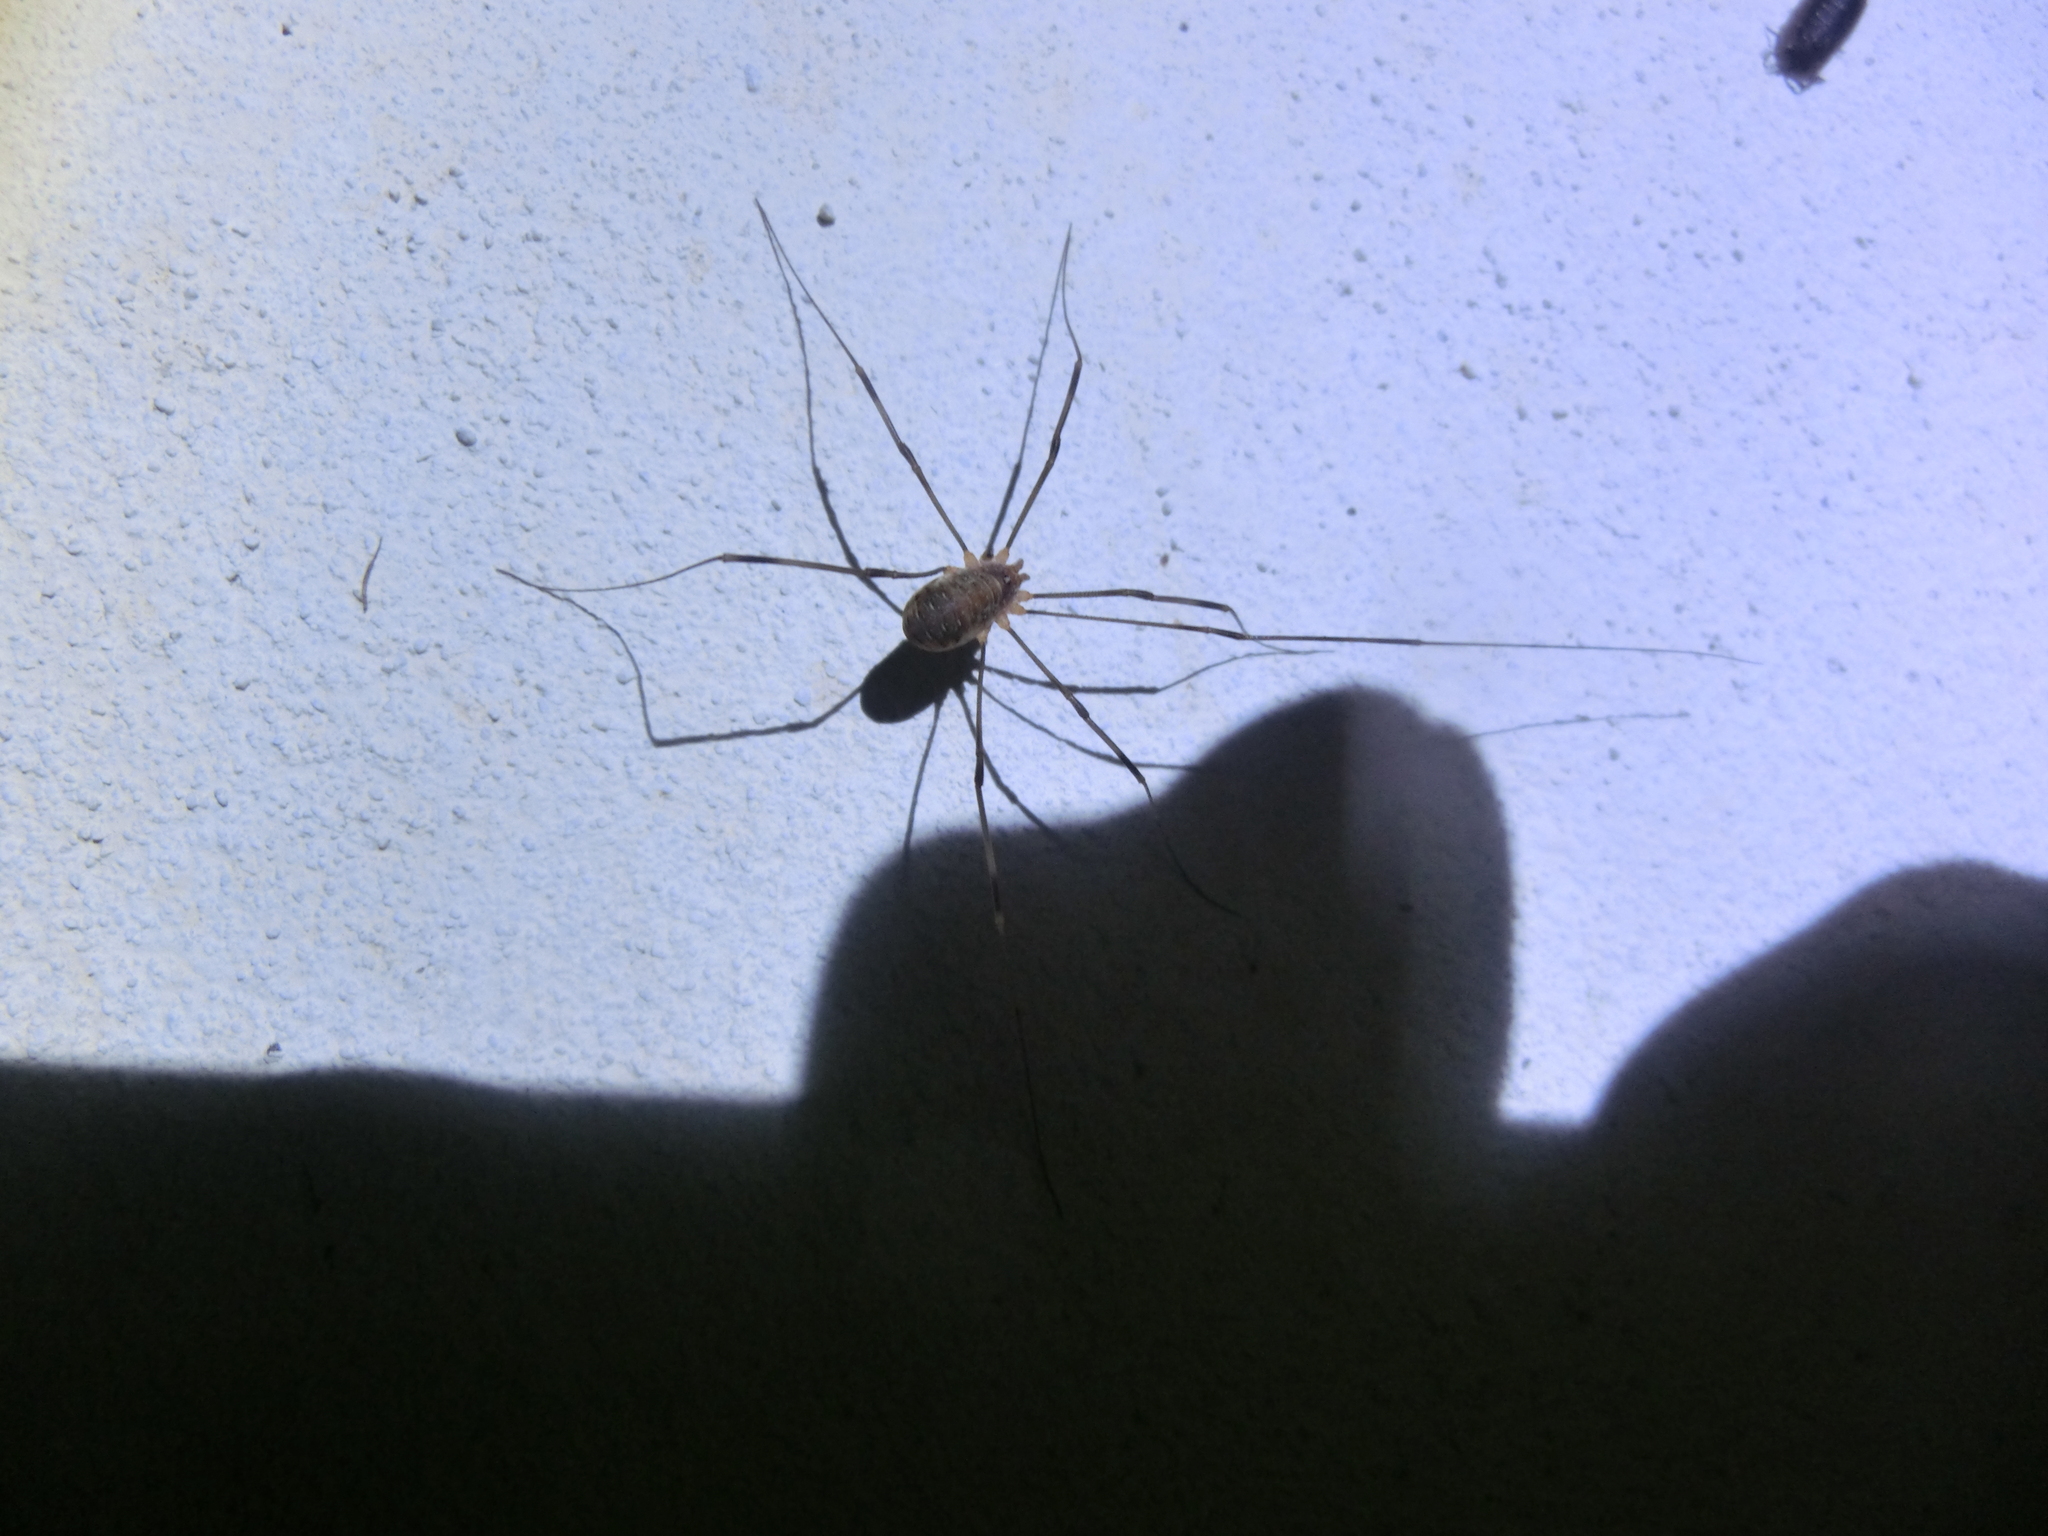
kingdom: Animalia
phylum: Arthropoda
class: Arachnida
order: Opiliones
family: Phalangiidae
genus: Opilio
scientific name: Opilio canestrinii
